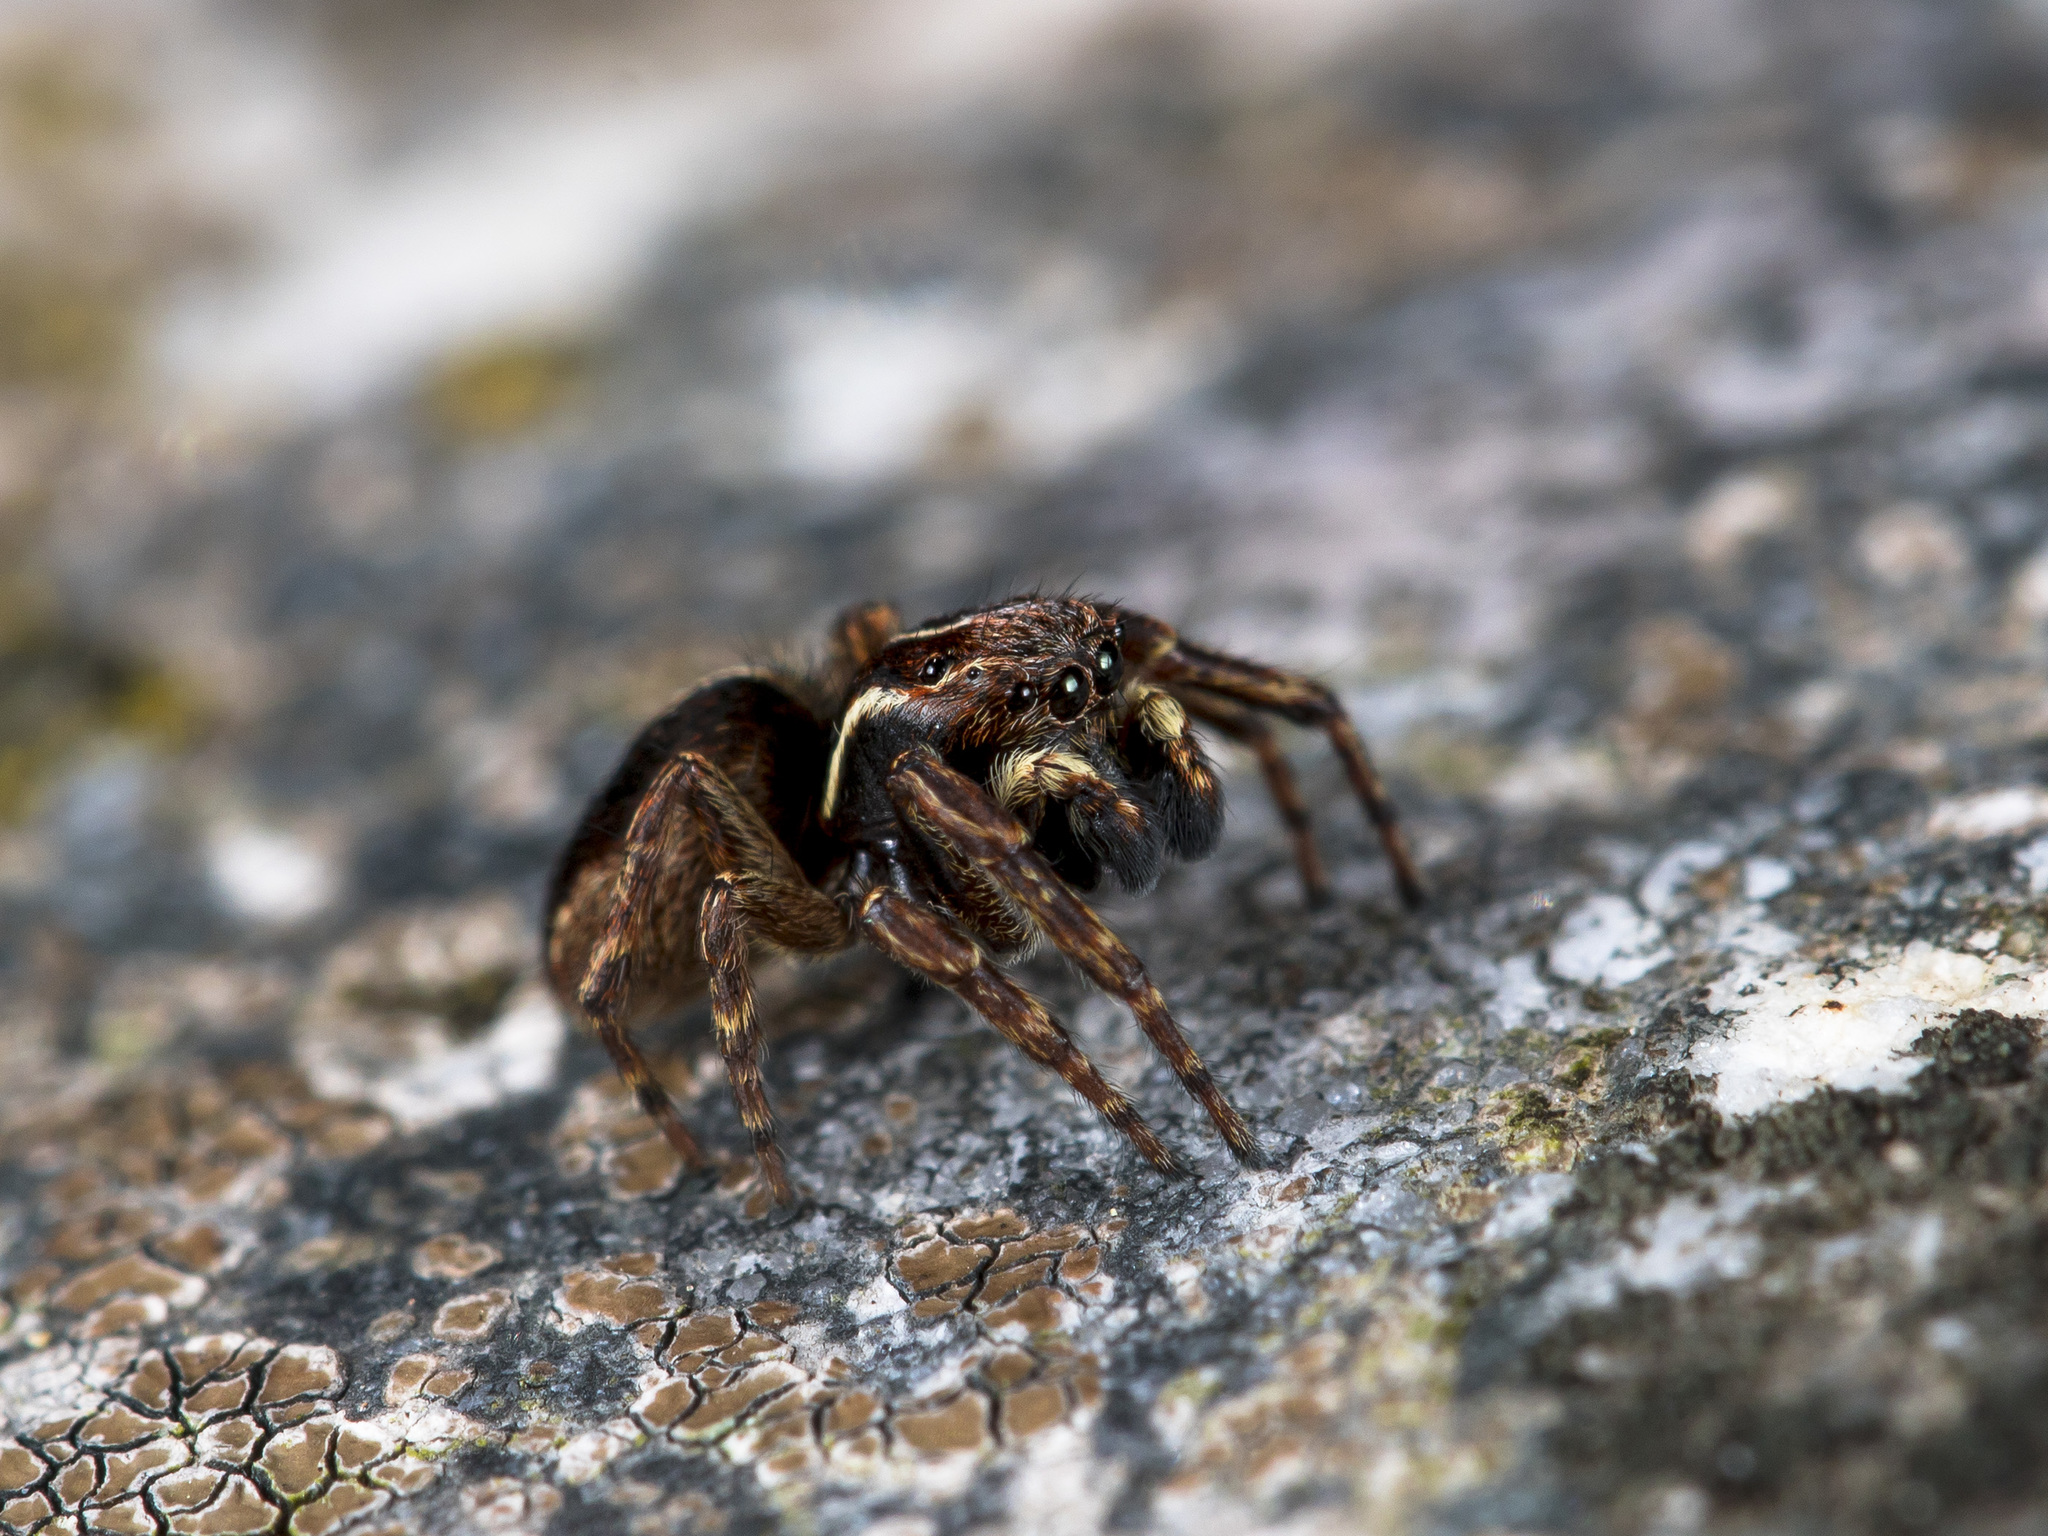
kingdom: Animalia
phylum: Arthropoda
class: Arachnida
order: Araneae
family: Salticidae
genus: Attulus
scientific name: Attulus monstrabilis
